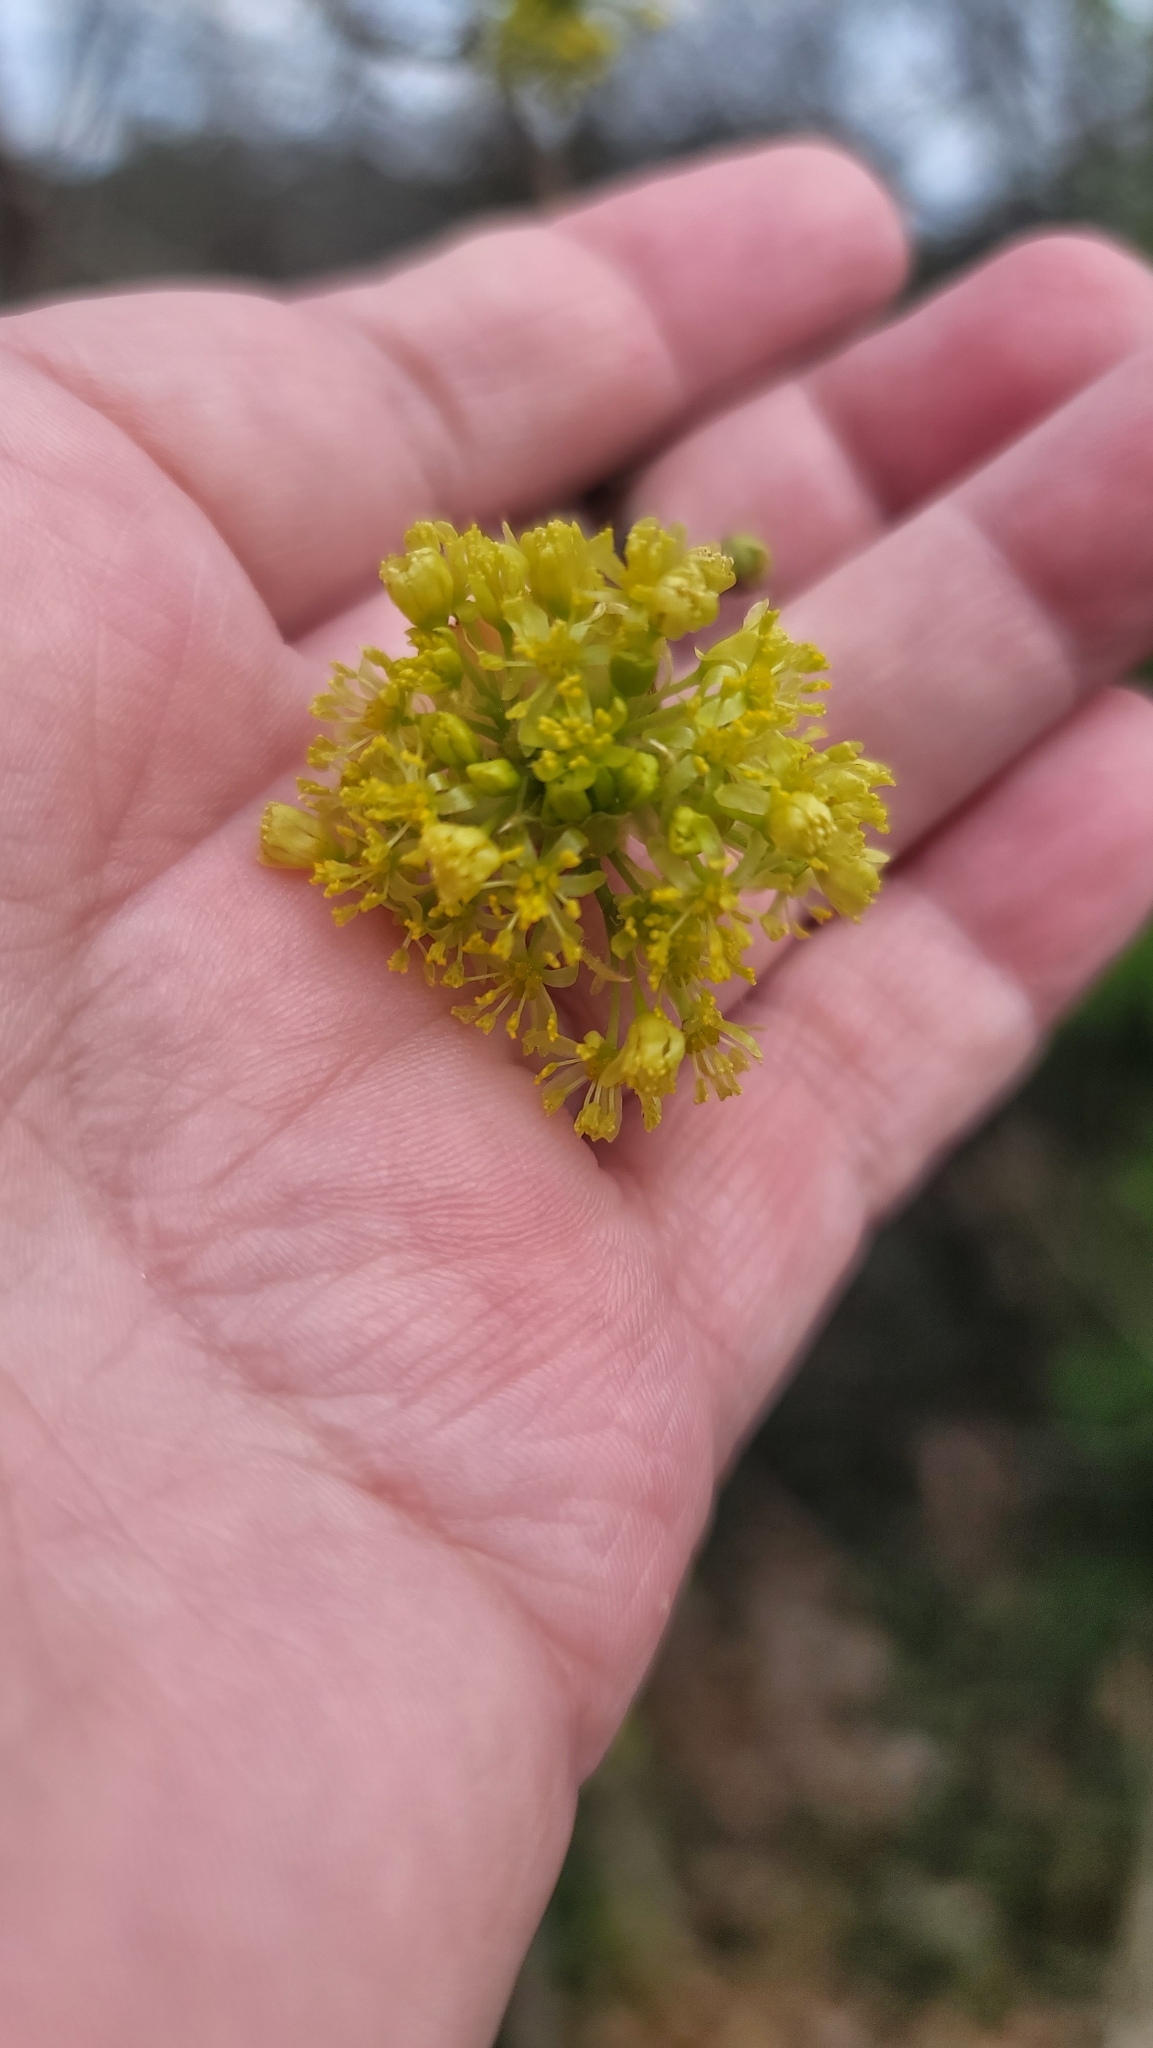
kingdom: Plantae
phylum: Tracheophyta
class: Magnoliopsida
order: Laurales
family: Lauraceae
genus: Sassafras
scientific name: Sassafras albidum
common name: Sassafras
